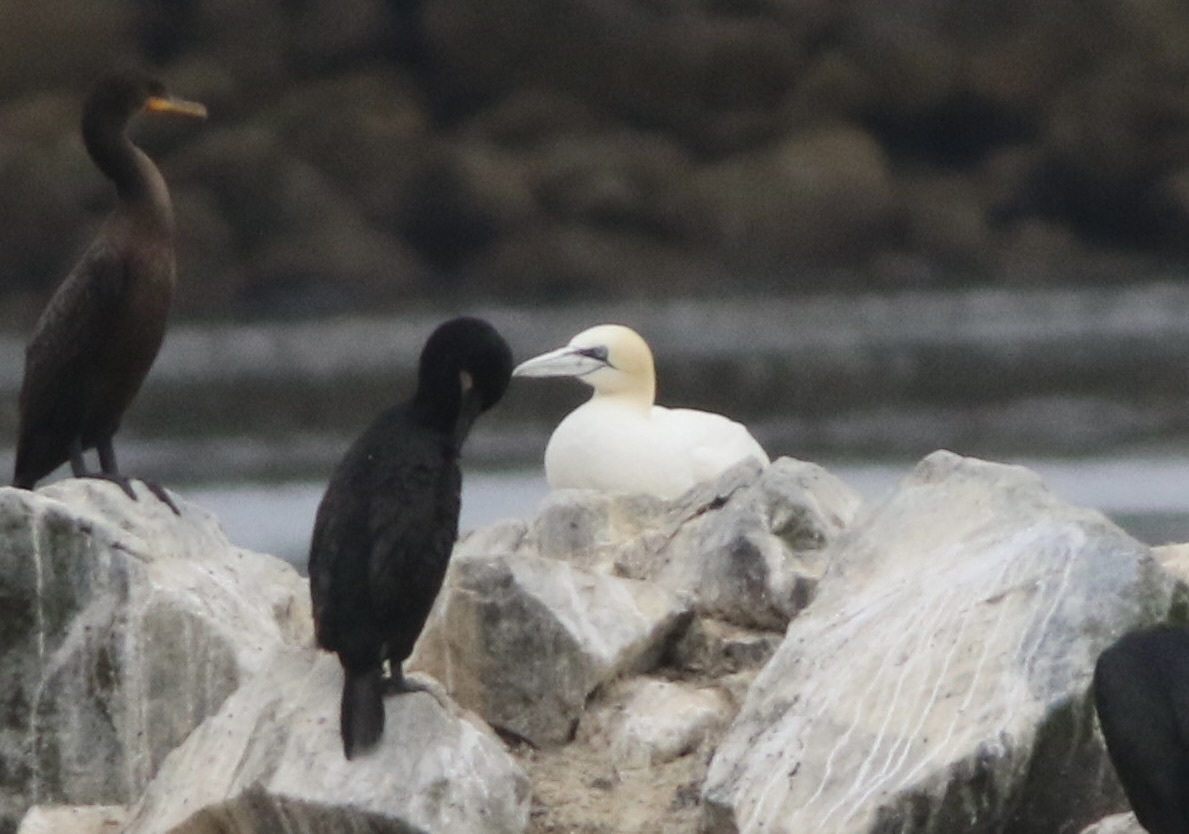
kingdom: Animalia
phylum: Chordata
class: Aves
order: Suliformes
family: Sulidae
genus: Morus
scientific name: Morus bassanus
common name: Northern gannet
